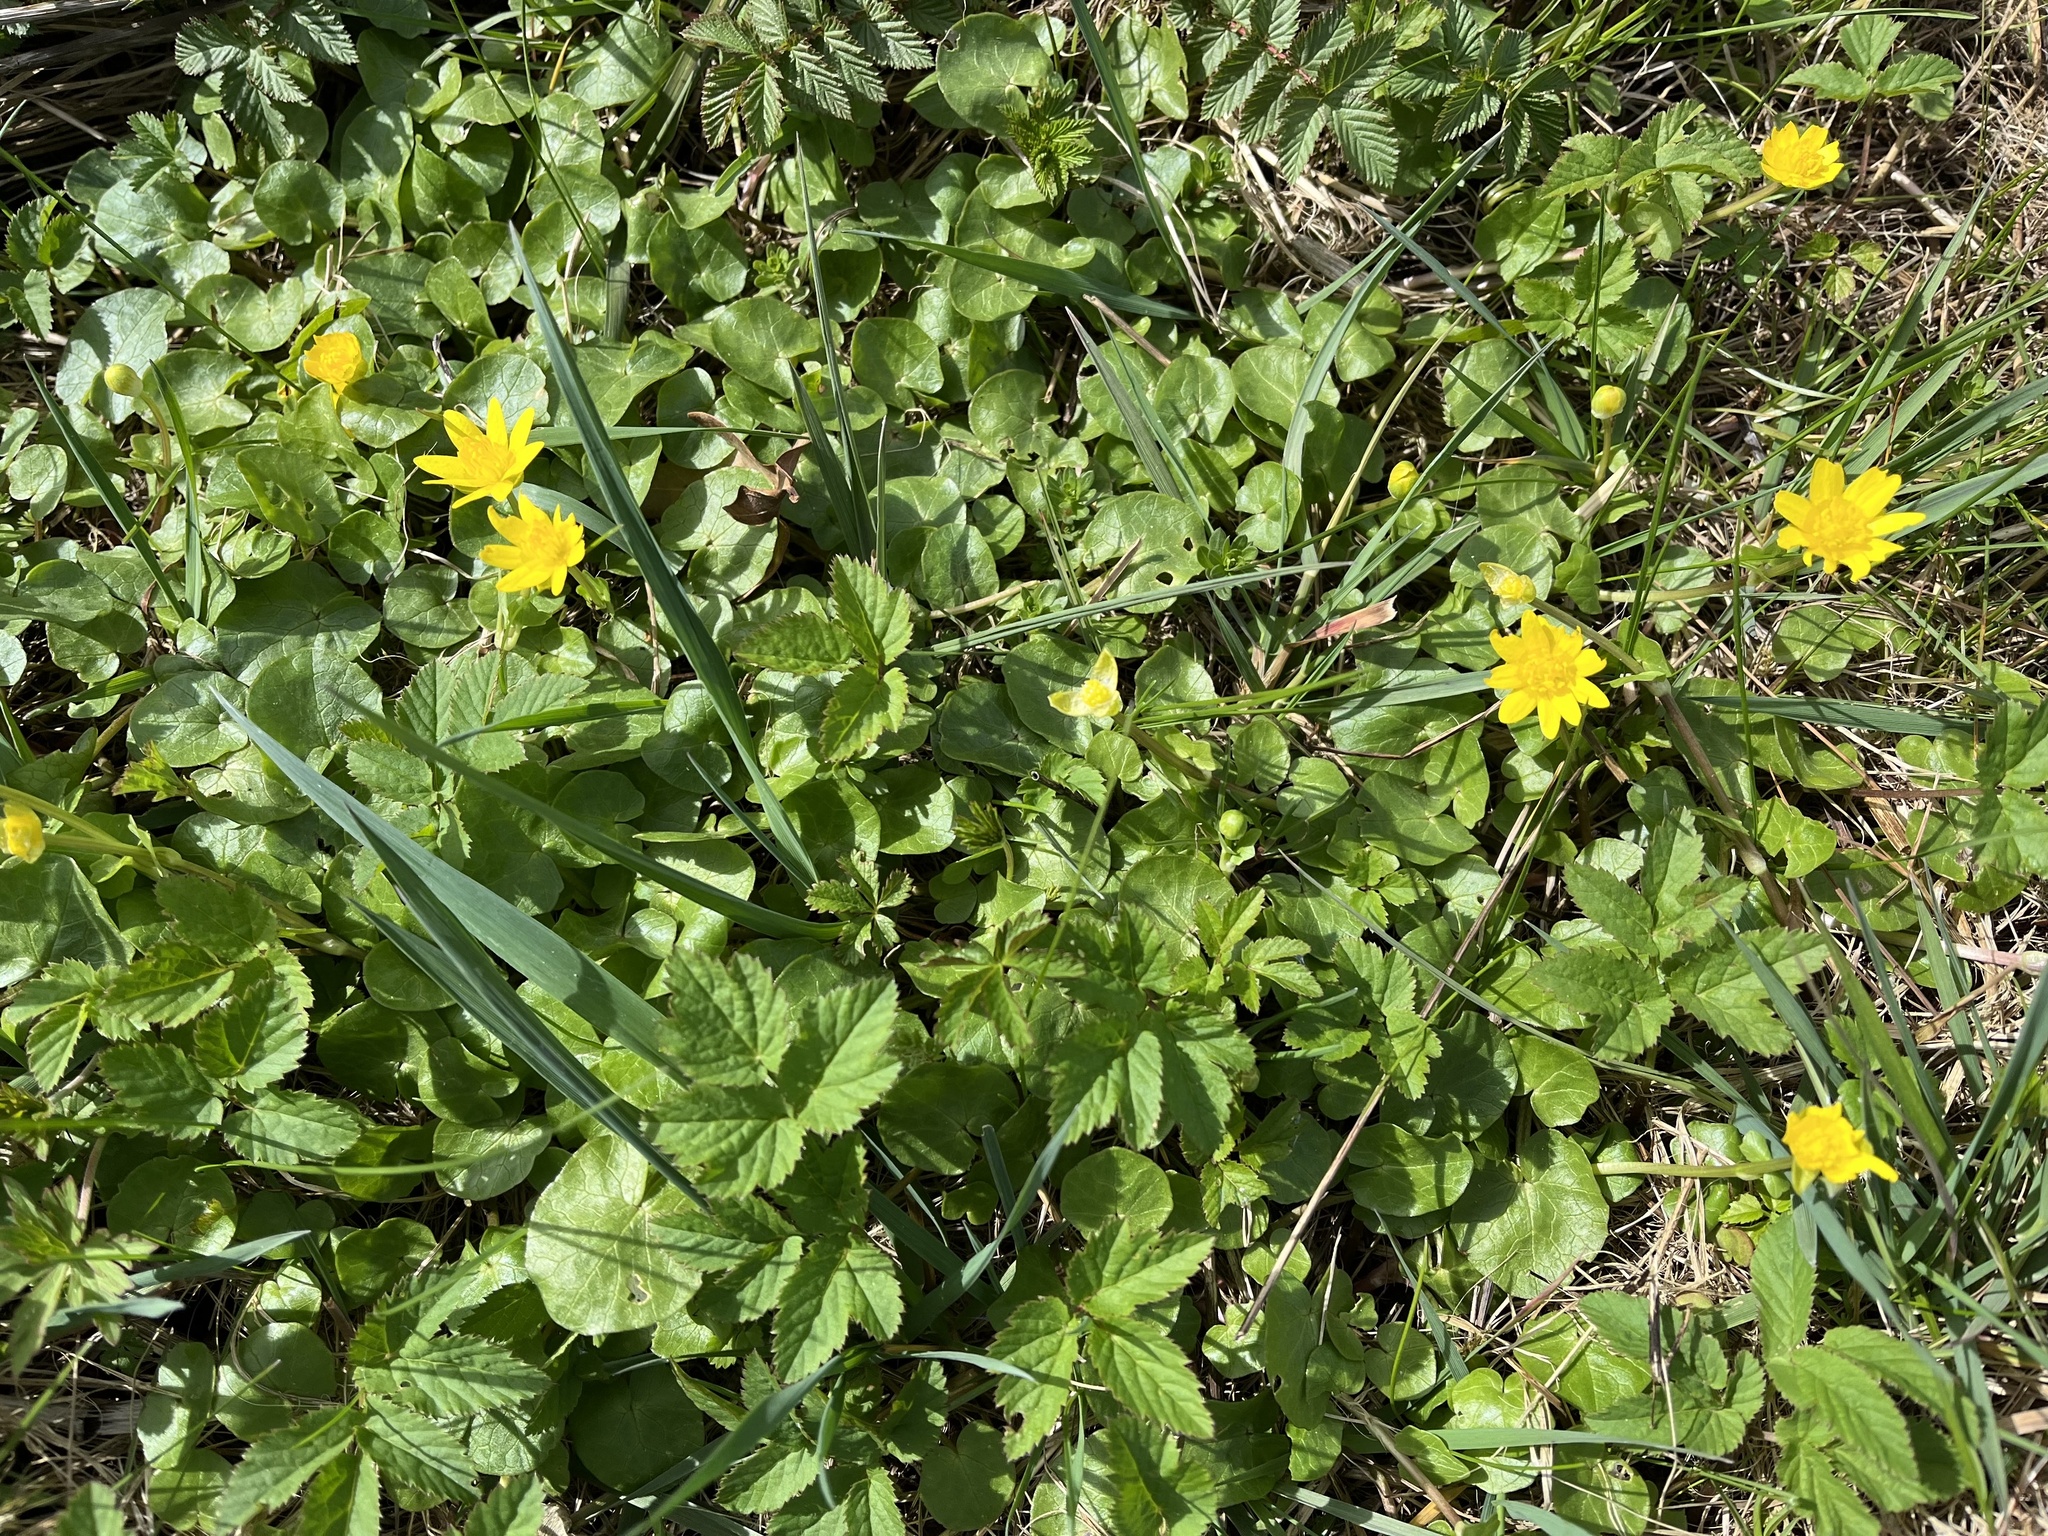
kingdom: Plantae
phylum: Tracheophyta
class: Magnoliopsida
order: Ranunculales
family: Ranunculaceae
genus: Ficaria
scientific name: Ficaria verna
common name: Lesser celandine
